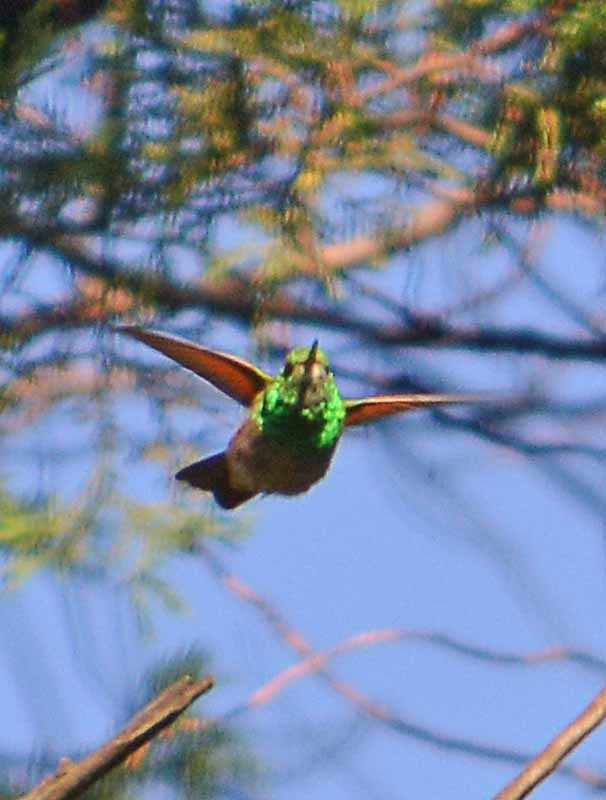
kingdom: Animalia
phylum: Chordata
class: Aves
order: Apodiformes
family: Trochilidae
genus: Saucerottia
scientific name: Saucerottia beryllina
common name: Berylline hummingbird
